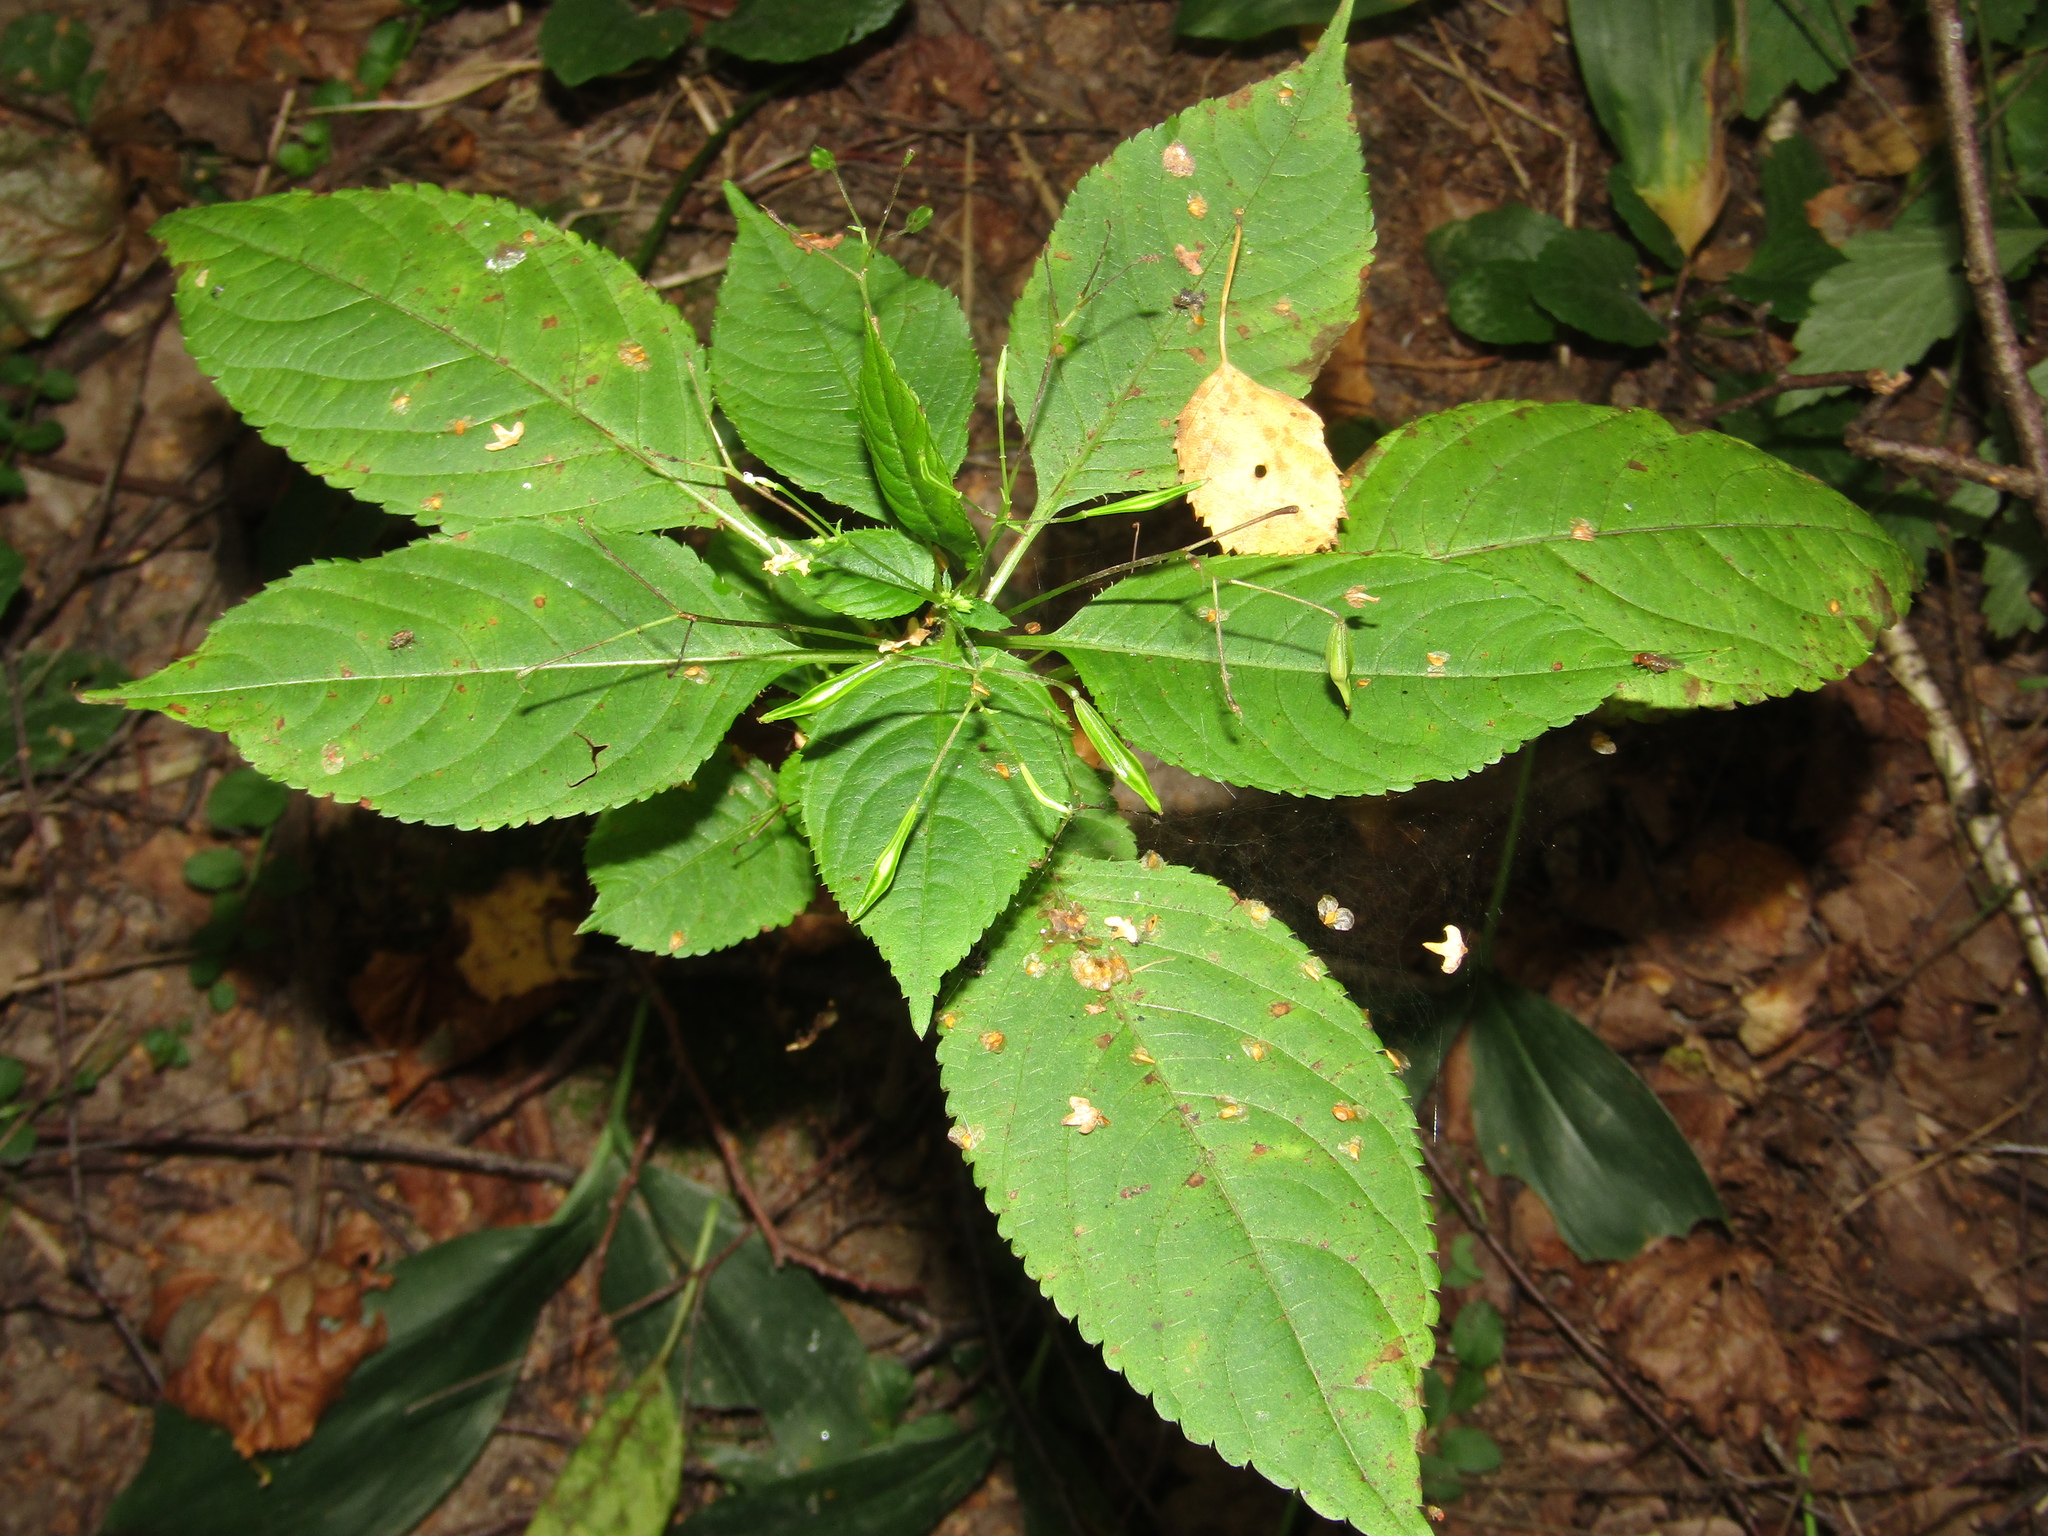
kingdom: Plantae
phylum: Tracheophyta
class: Magnoliopsida
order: Ericales
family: Balsaminaceae
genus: Impatiens
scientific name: Impatiens parviflora
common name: Small balsam
